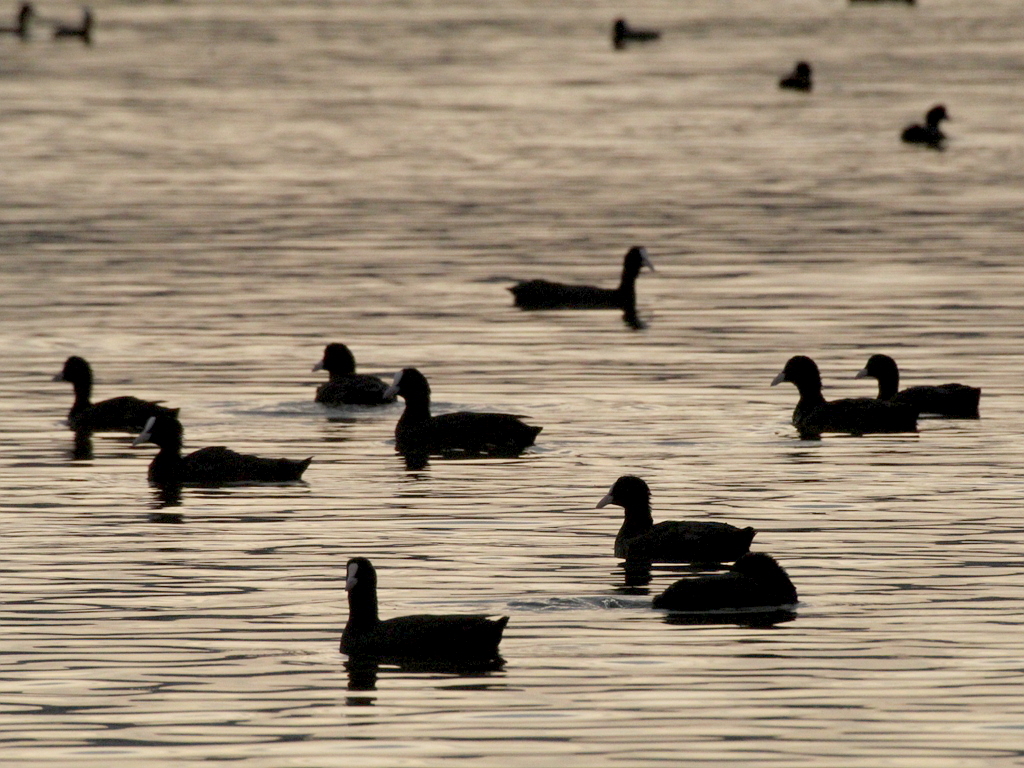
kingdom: Animalia
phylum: Chordata
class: Aves
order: Gruiformes
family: Rallidae
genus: Fulica
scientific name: Fulica atra
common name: Eurasian coot
